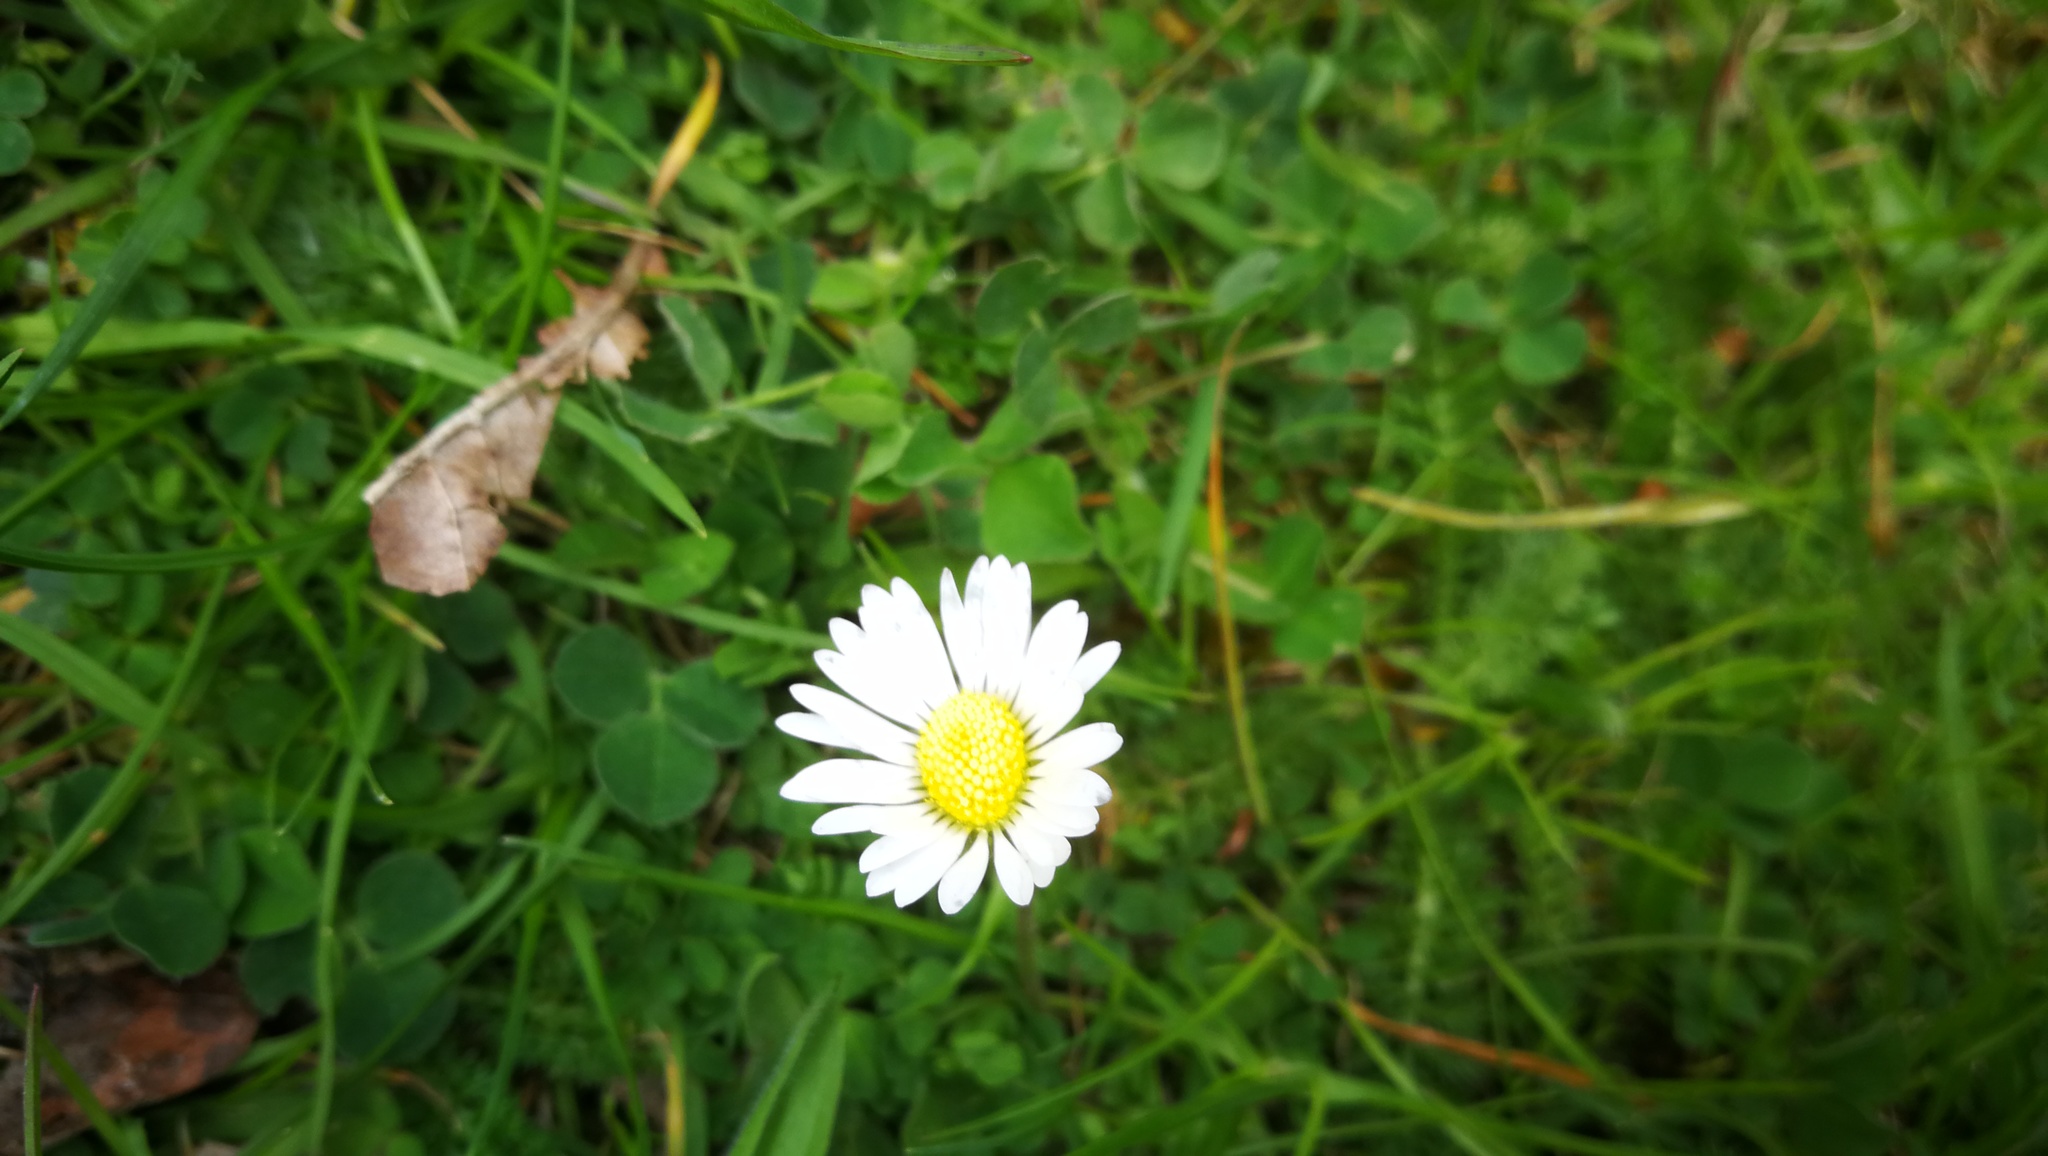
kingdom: Plantae
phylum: Tracheophyta
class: Magnoliopsida
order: Asterales
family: Asteraceae
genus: Bellis
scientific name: Bellis perennis
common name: Lawndaisy
